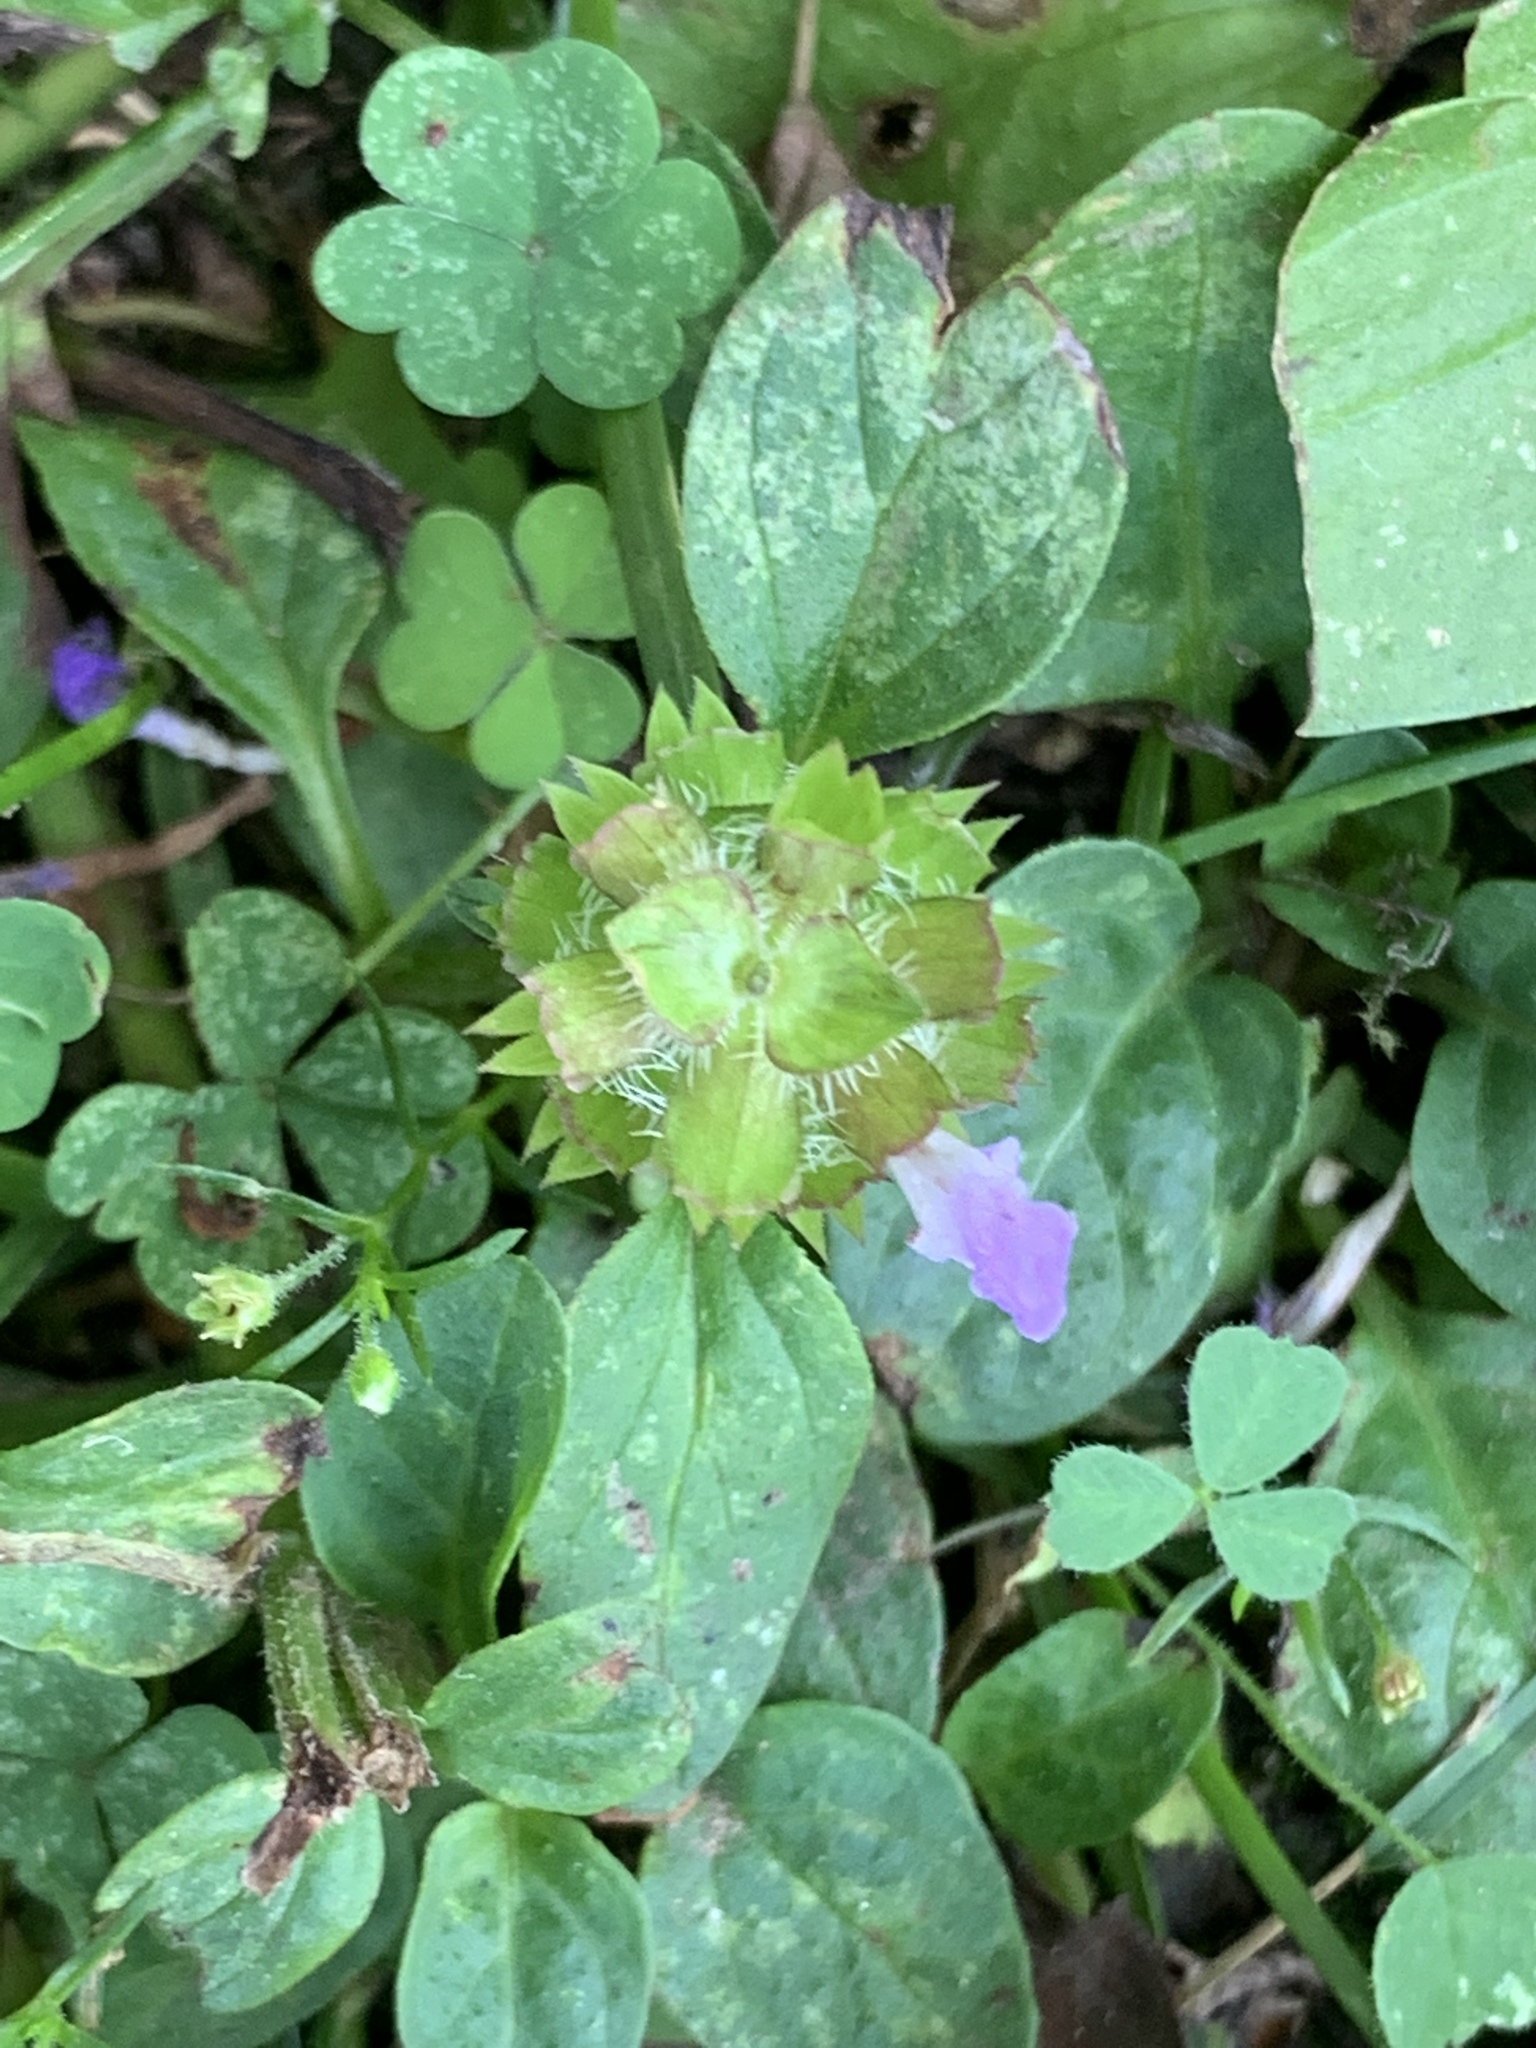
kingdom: Plantae
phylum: Tracheophyta
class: Magnoliopsida
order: Lamiales
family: Lamiaceae
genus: Prunella
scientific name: Prunella vulgaris
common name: Heal-all
